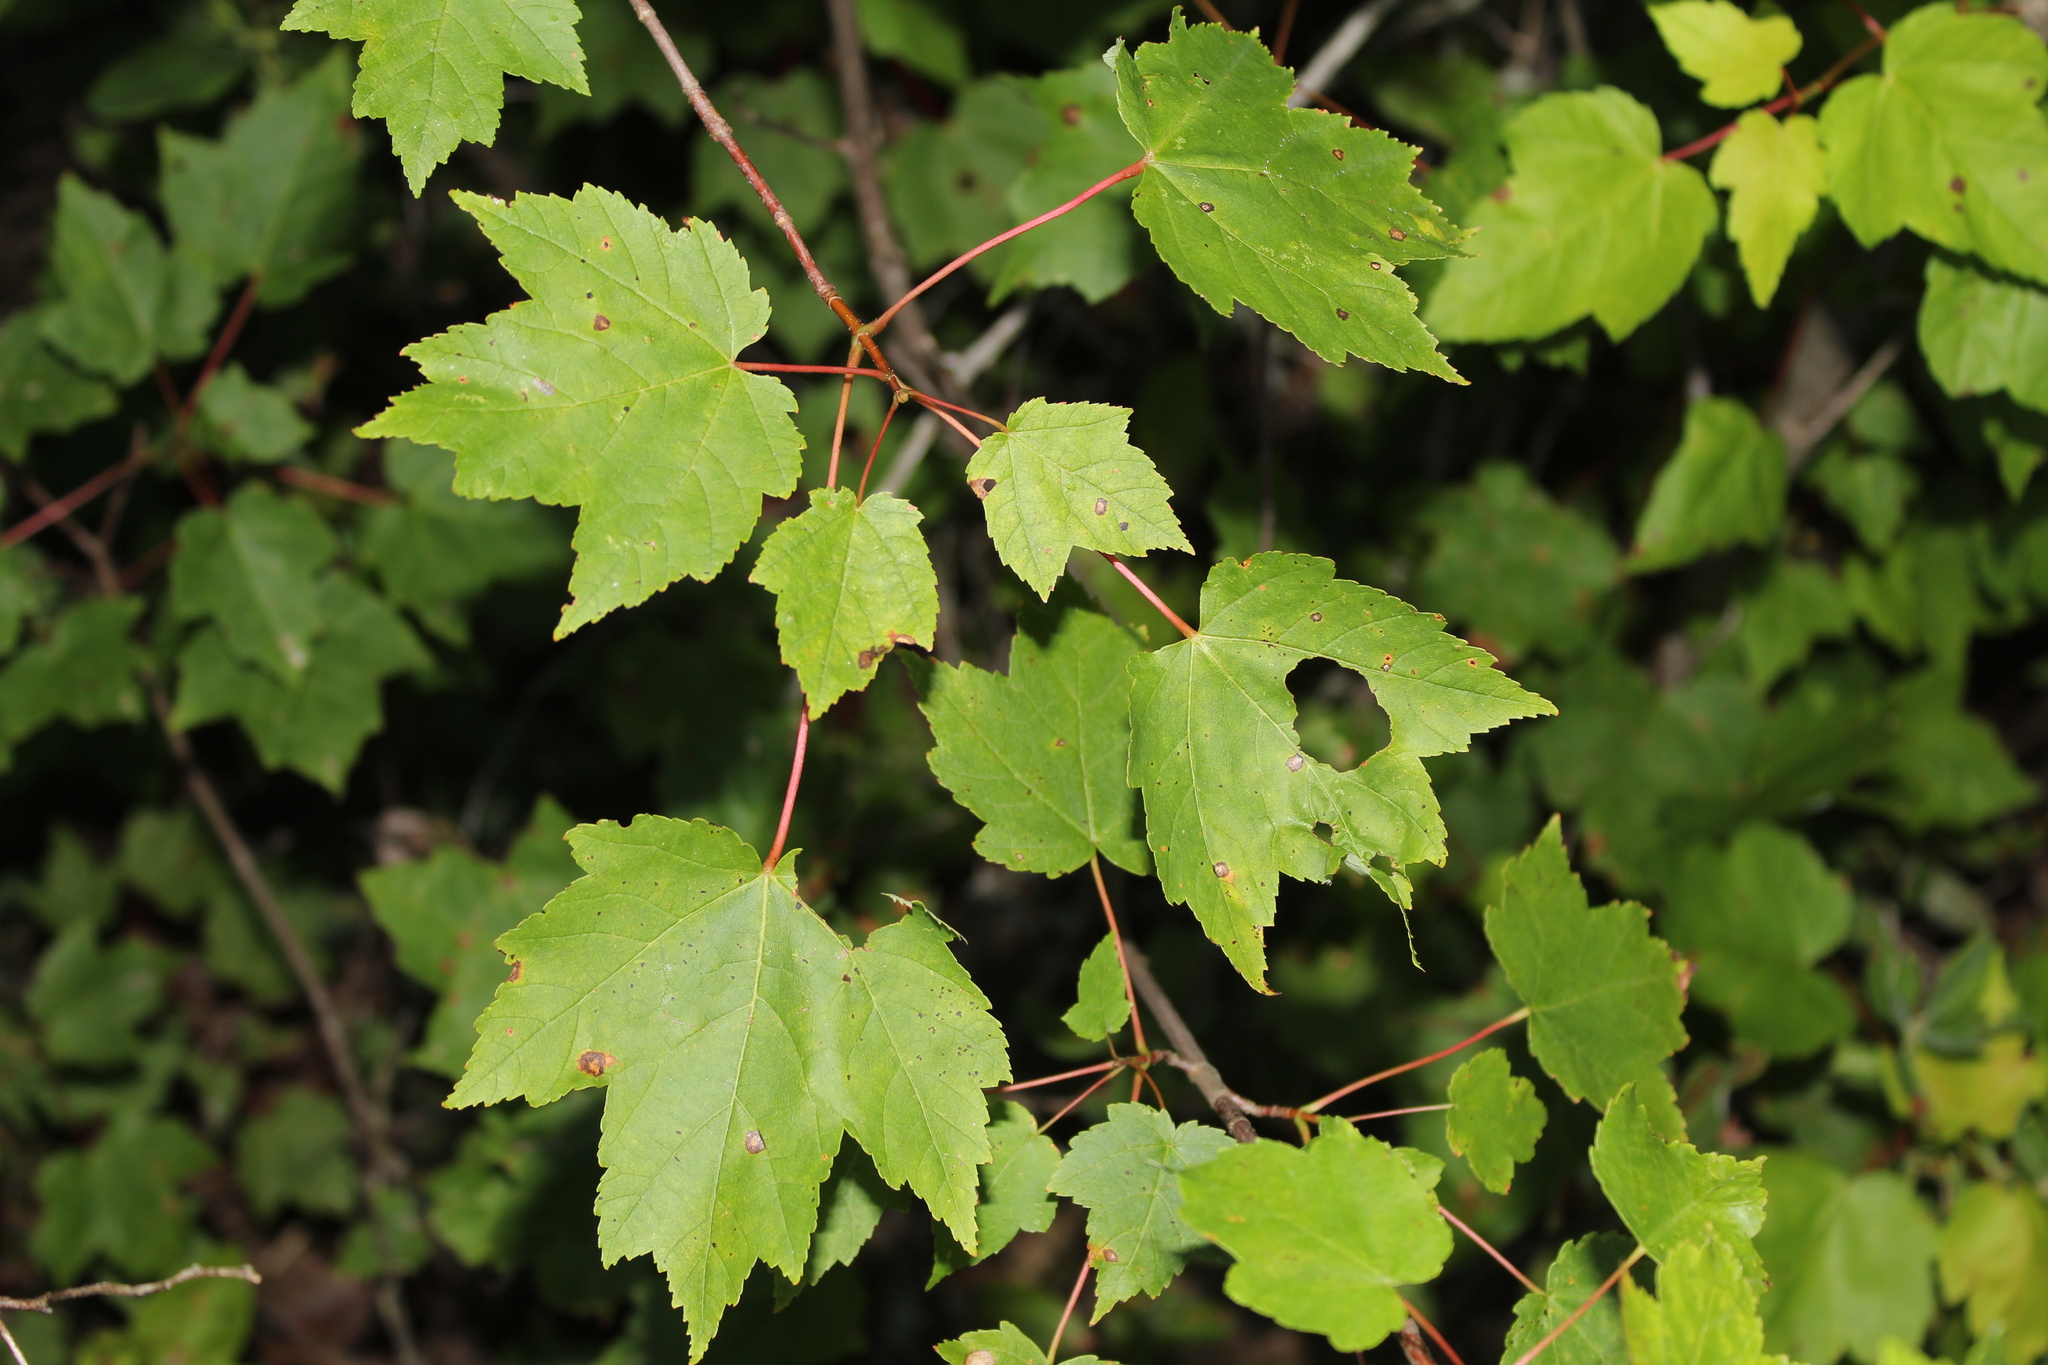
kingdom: Plantae
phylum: Tracheophyta
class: Magnoliopsida
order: Sapindales
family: Sapindaceae
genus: Acer
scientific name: Acer rubrum
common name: Red maple
